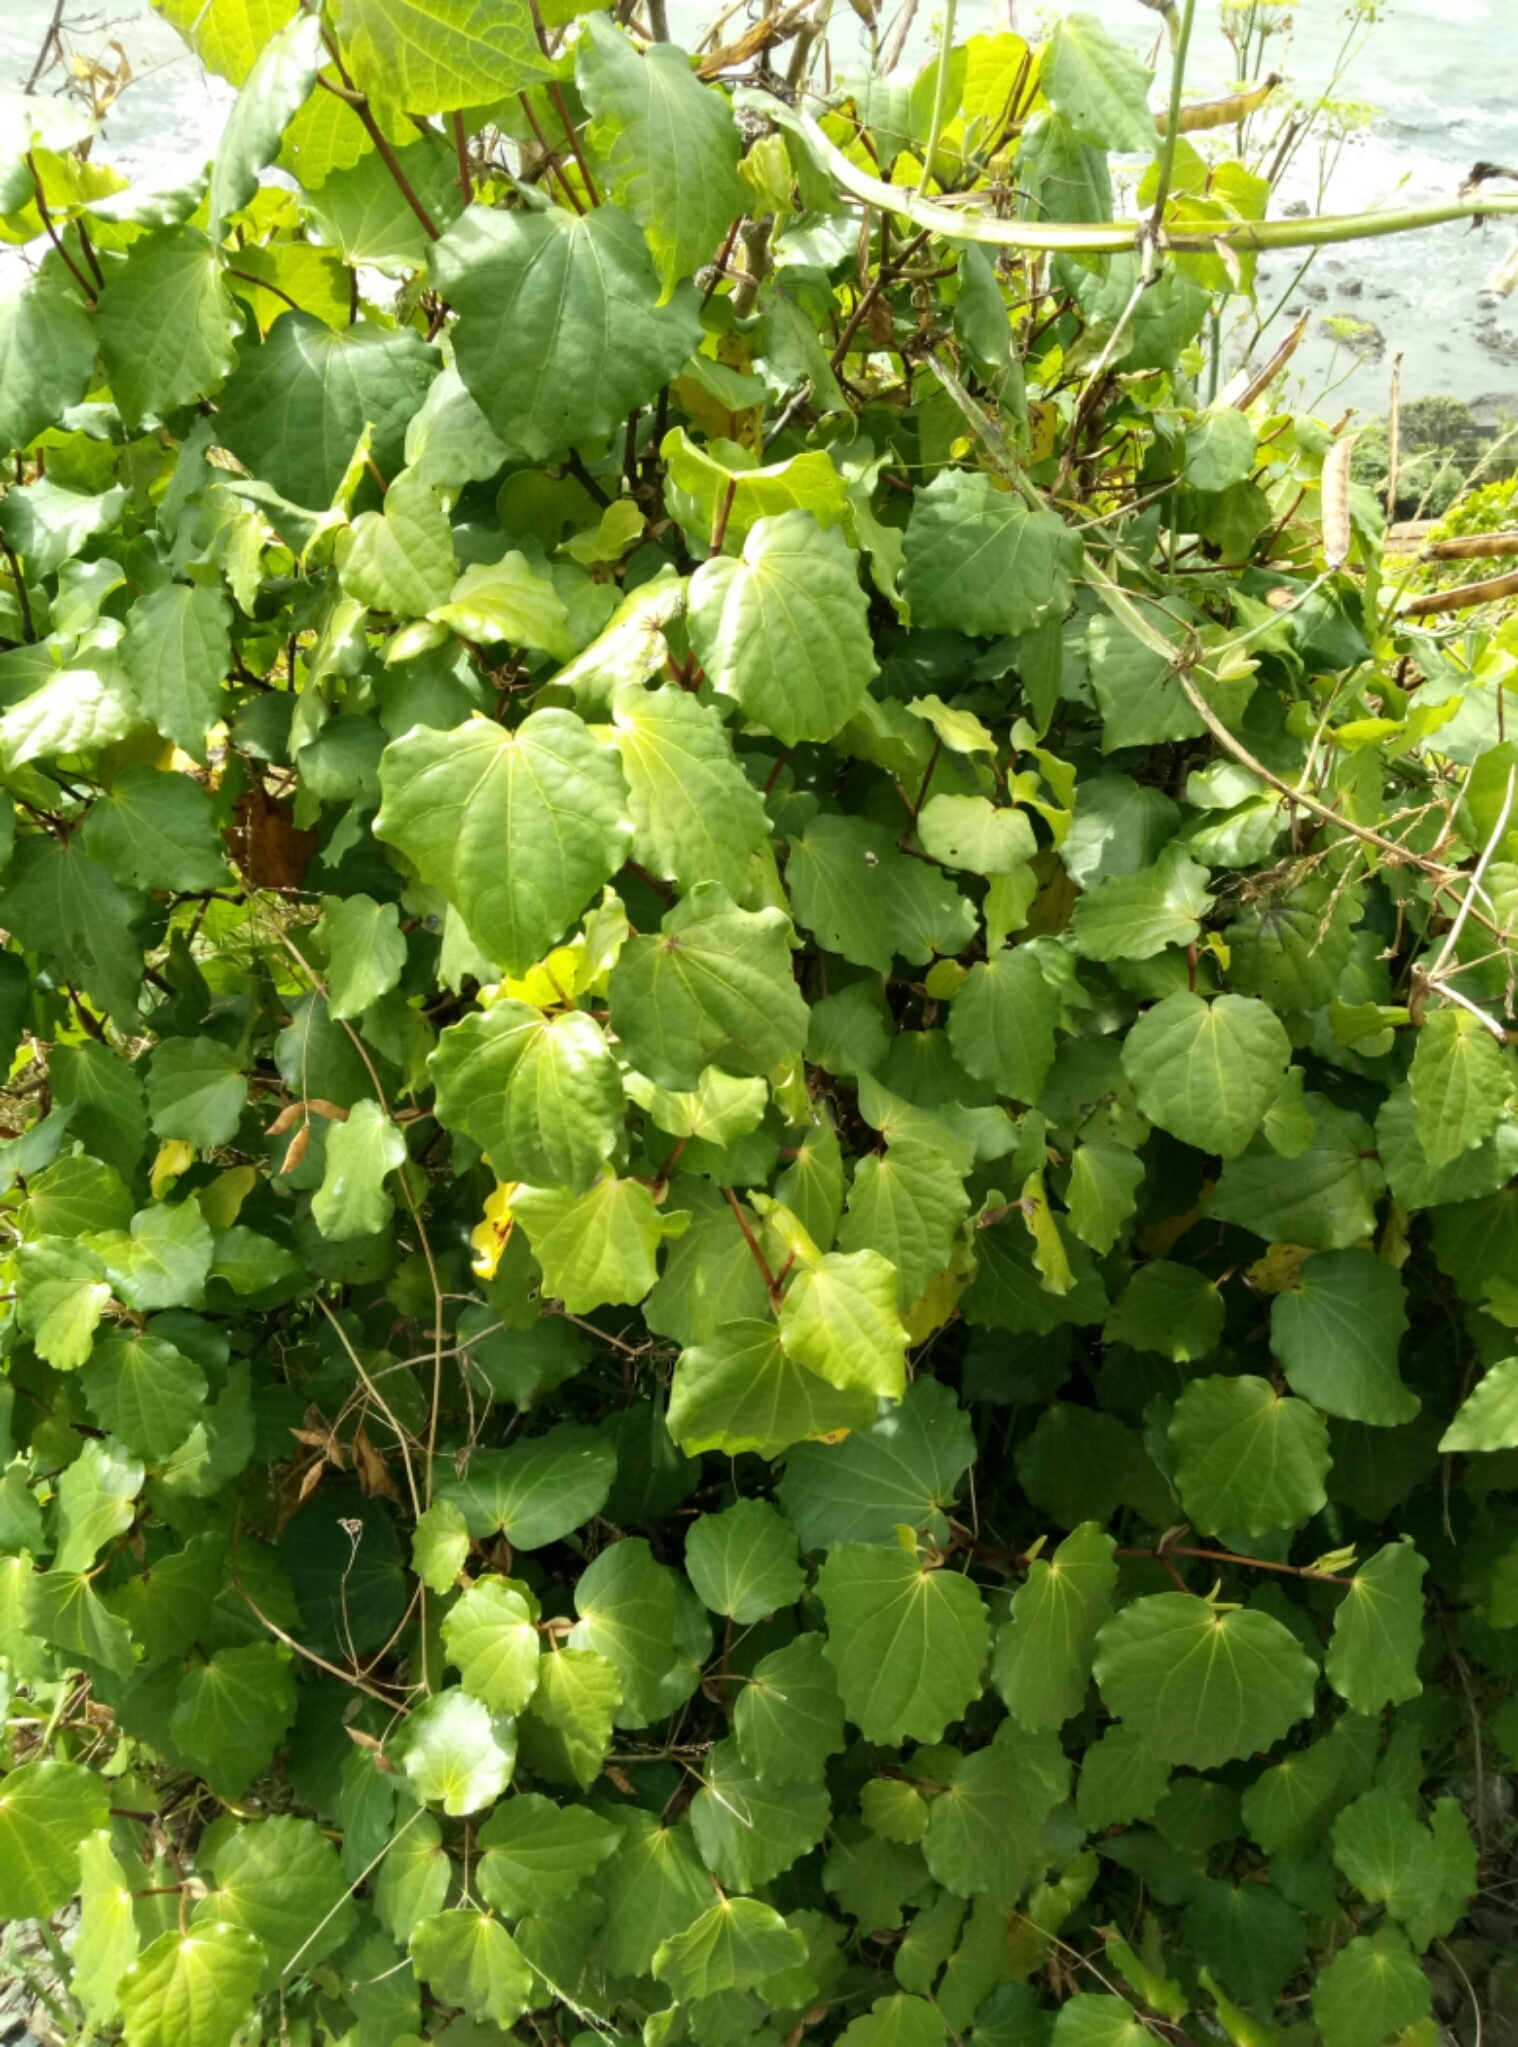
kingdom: Plantae
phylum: Tracheophyta
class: Magnoliopsida
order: Piperales
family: Piperaceae
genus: Macropiper
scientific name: Macropiper excelsum
